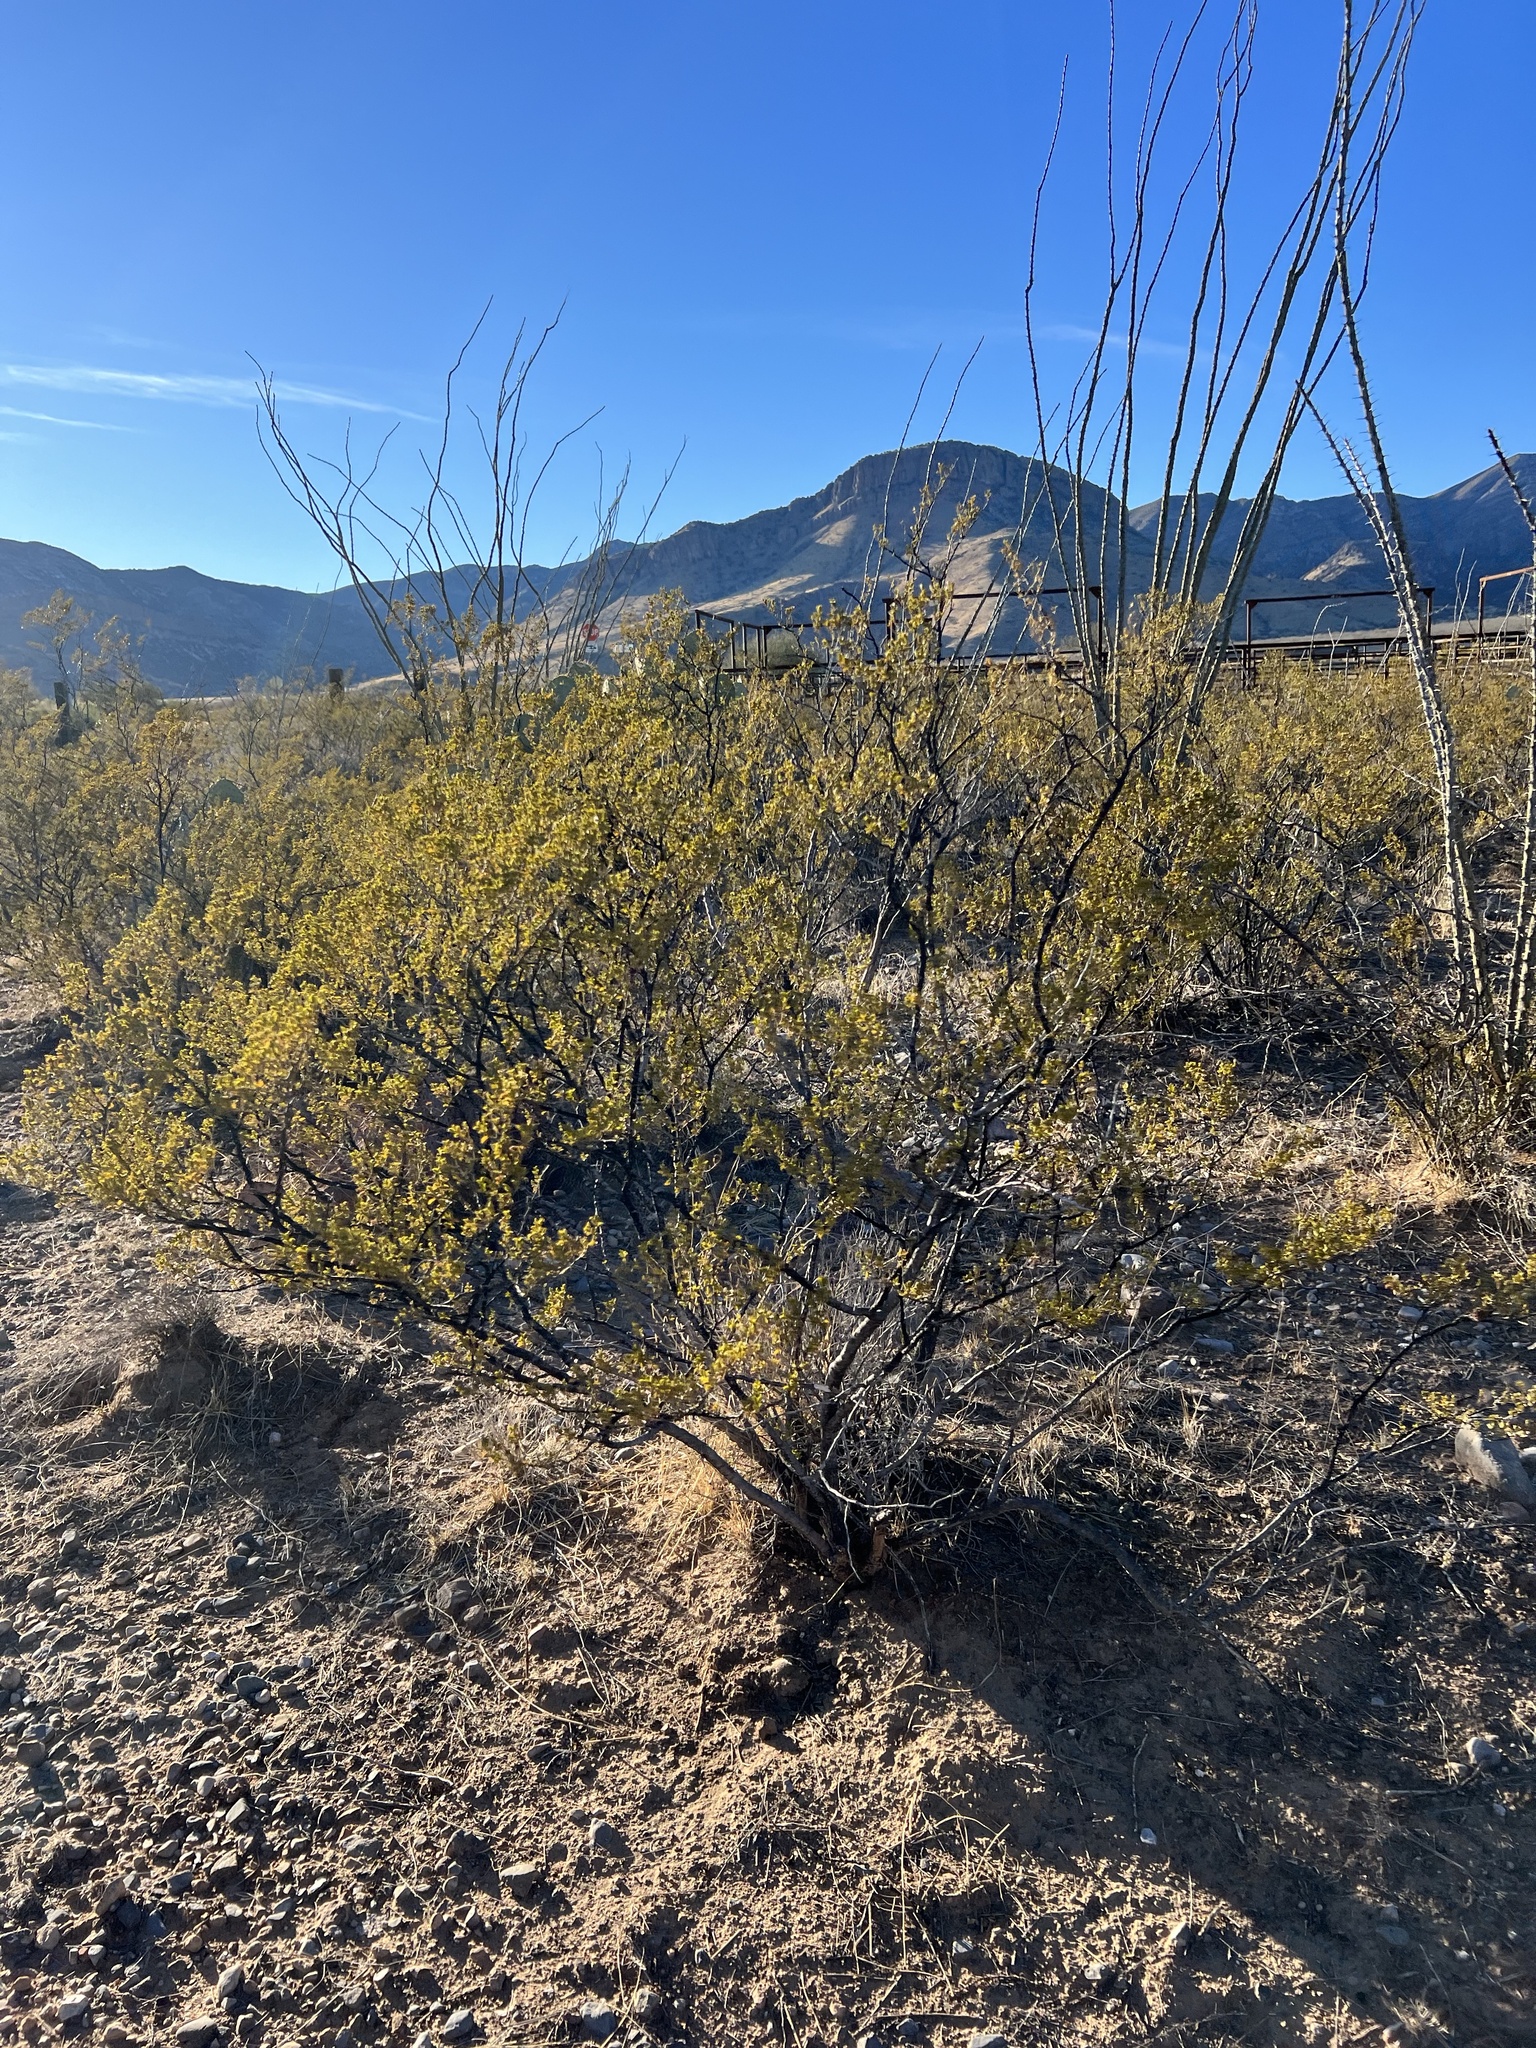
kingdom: Plantae
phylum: Tracheophyta
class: Magnoliopsida
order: Zygophyllales
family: Zygophyllaceae
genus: Larrea
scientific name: Larrea tridentata
